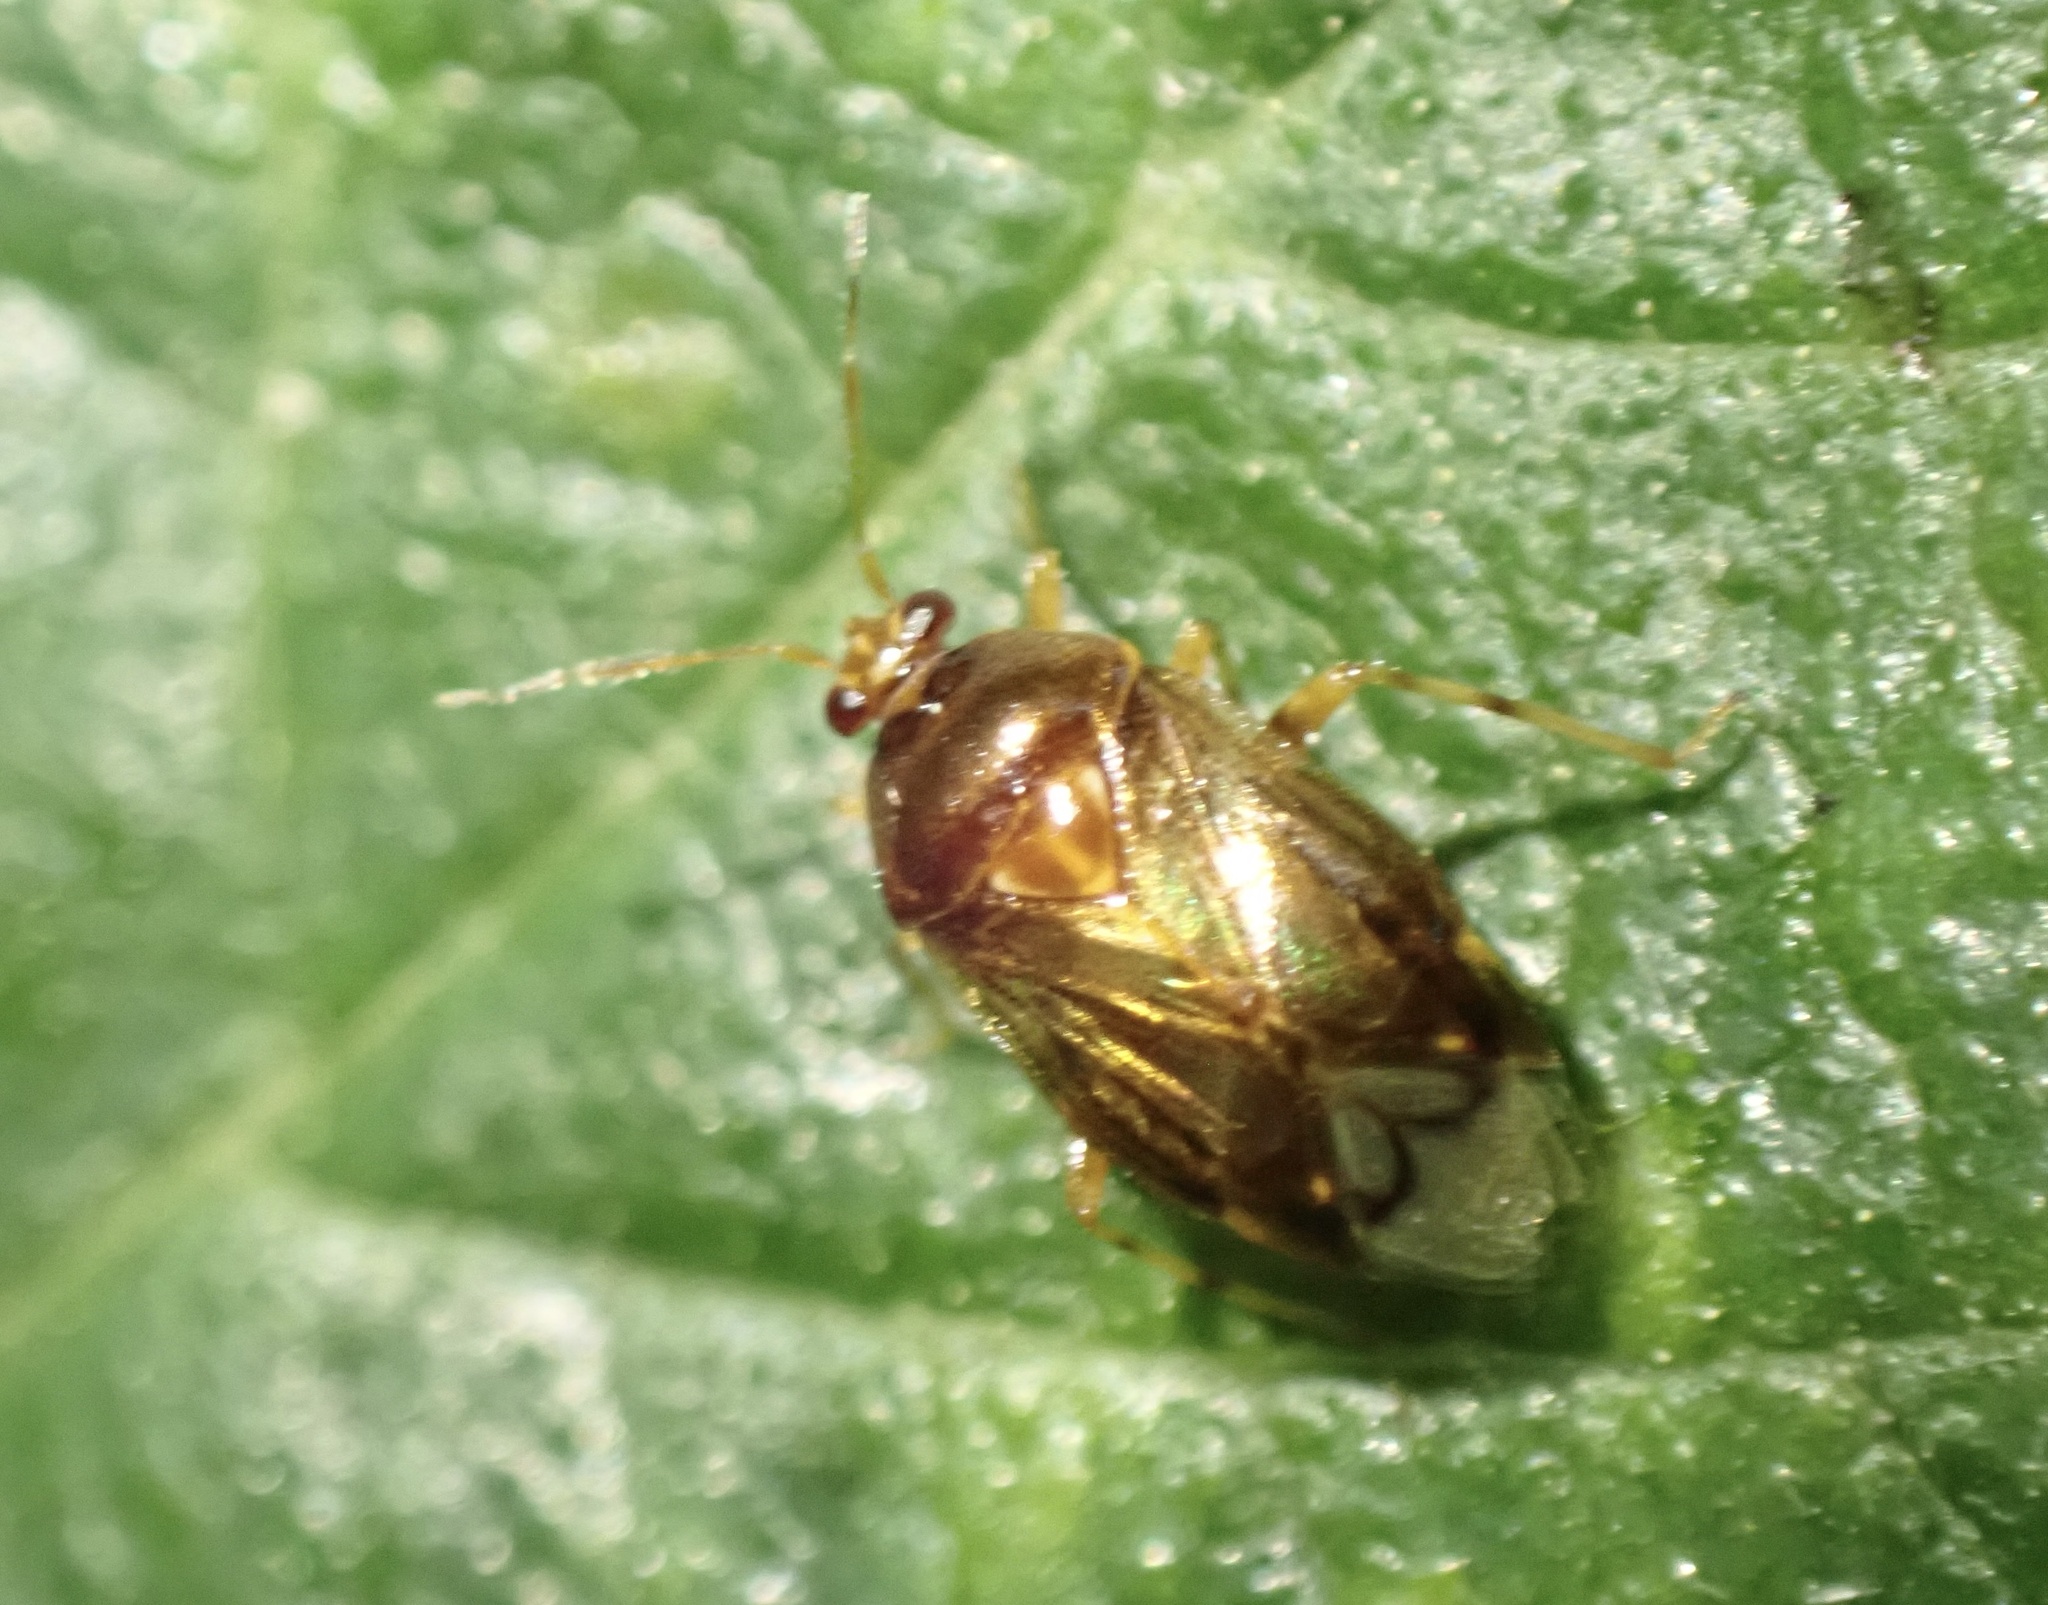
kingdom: Animalia
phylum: Arthropoda
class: Insecta
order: Hemiptera
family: Miridae
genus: Deraeocoris
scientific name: Deraeocoris lutescens
